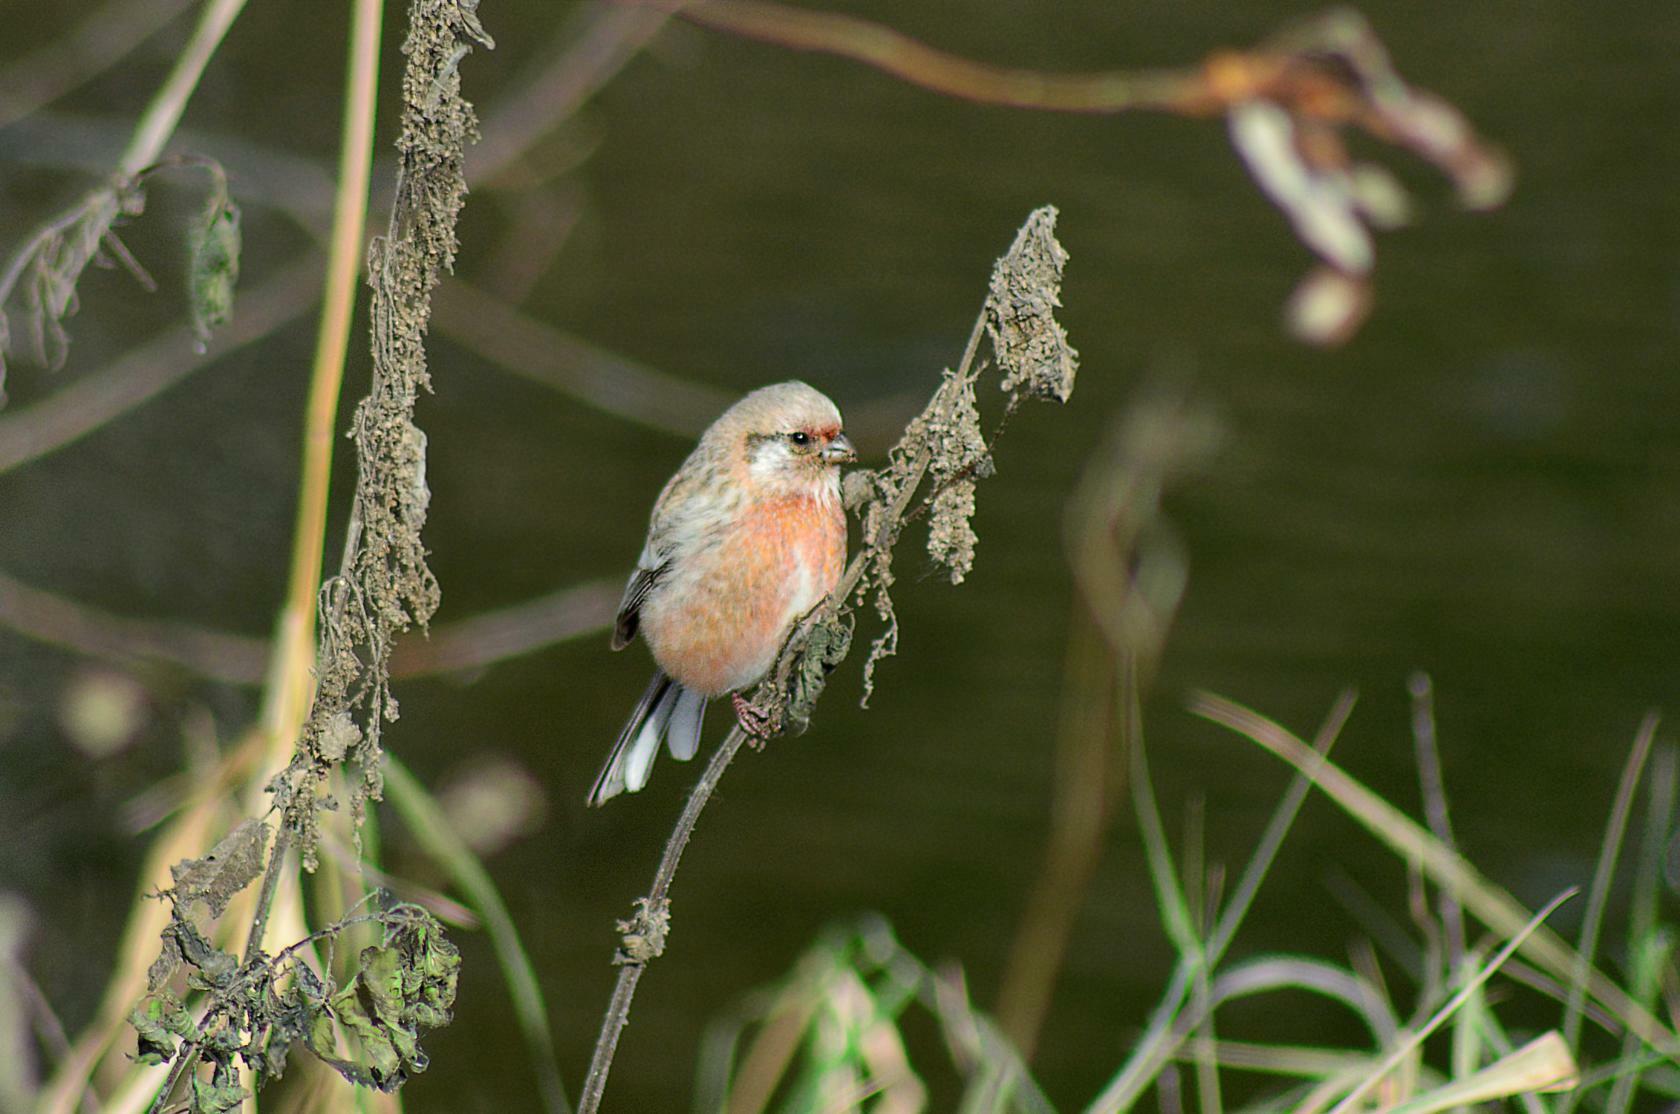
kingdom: Animalia
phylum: Chordata
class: Aves
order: Passeriformes
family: Fringillidae
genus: Carpodacus
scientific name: Carpodacus sibiricus
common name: Long-tailed rosefinch
